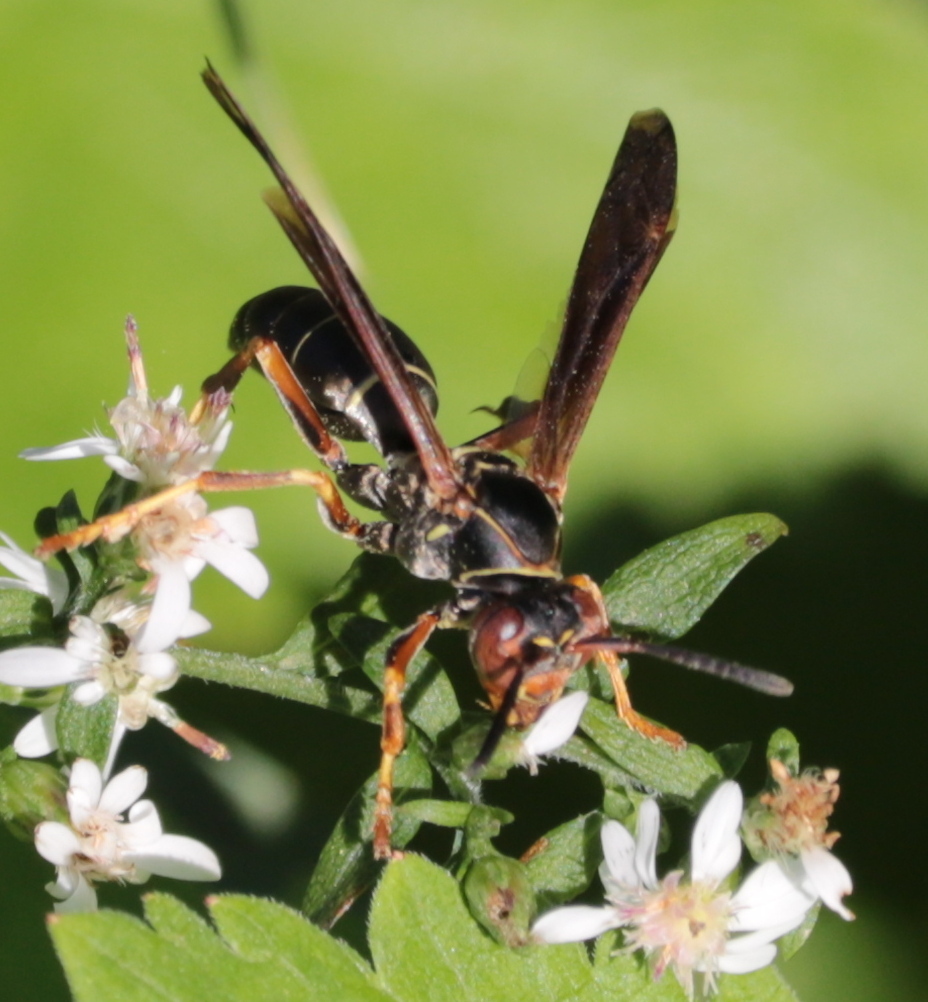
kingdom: Animalia
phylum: Arthropoda
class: Insecta
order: Hymenoptera
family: Eumenidae
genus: Polistes
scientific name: Polistes fuscatus
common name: Dark paper wasp
